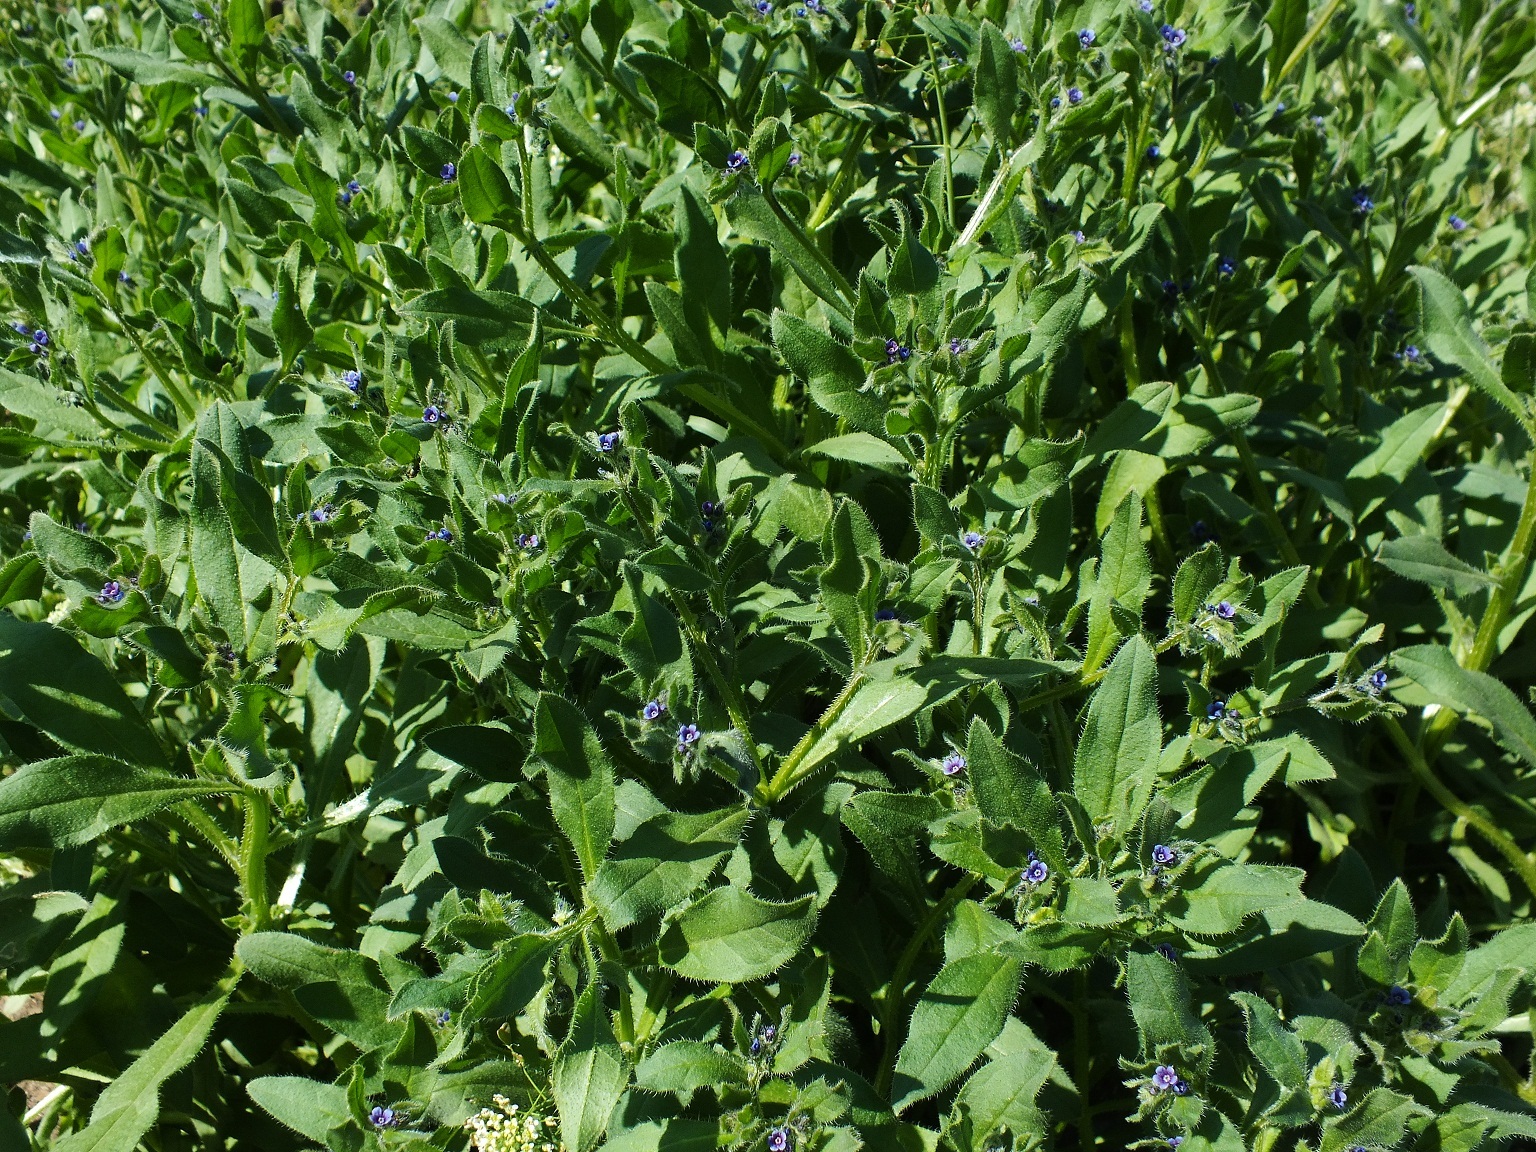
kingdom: Plantae
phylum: Tracheophyta
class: Magnoliopsida
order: Boraginales
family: Boraginaceae
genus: Asperugo
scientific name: Asperugo procumbens
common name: Madwort
